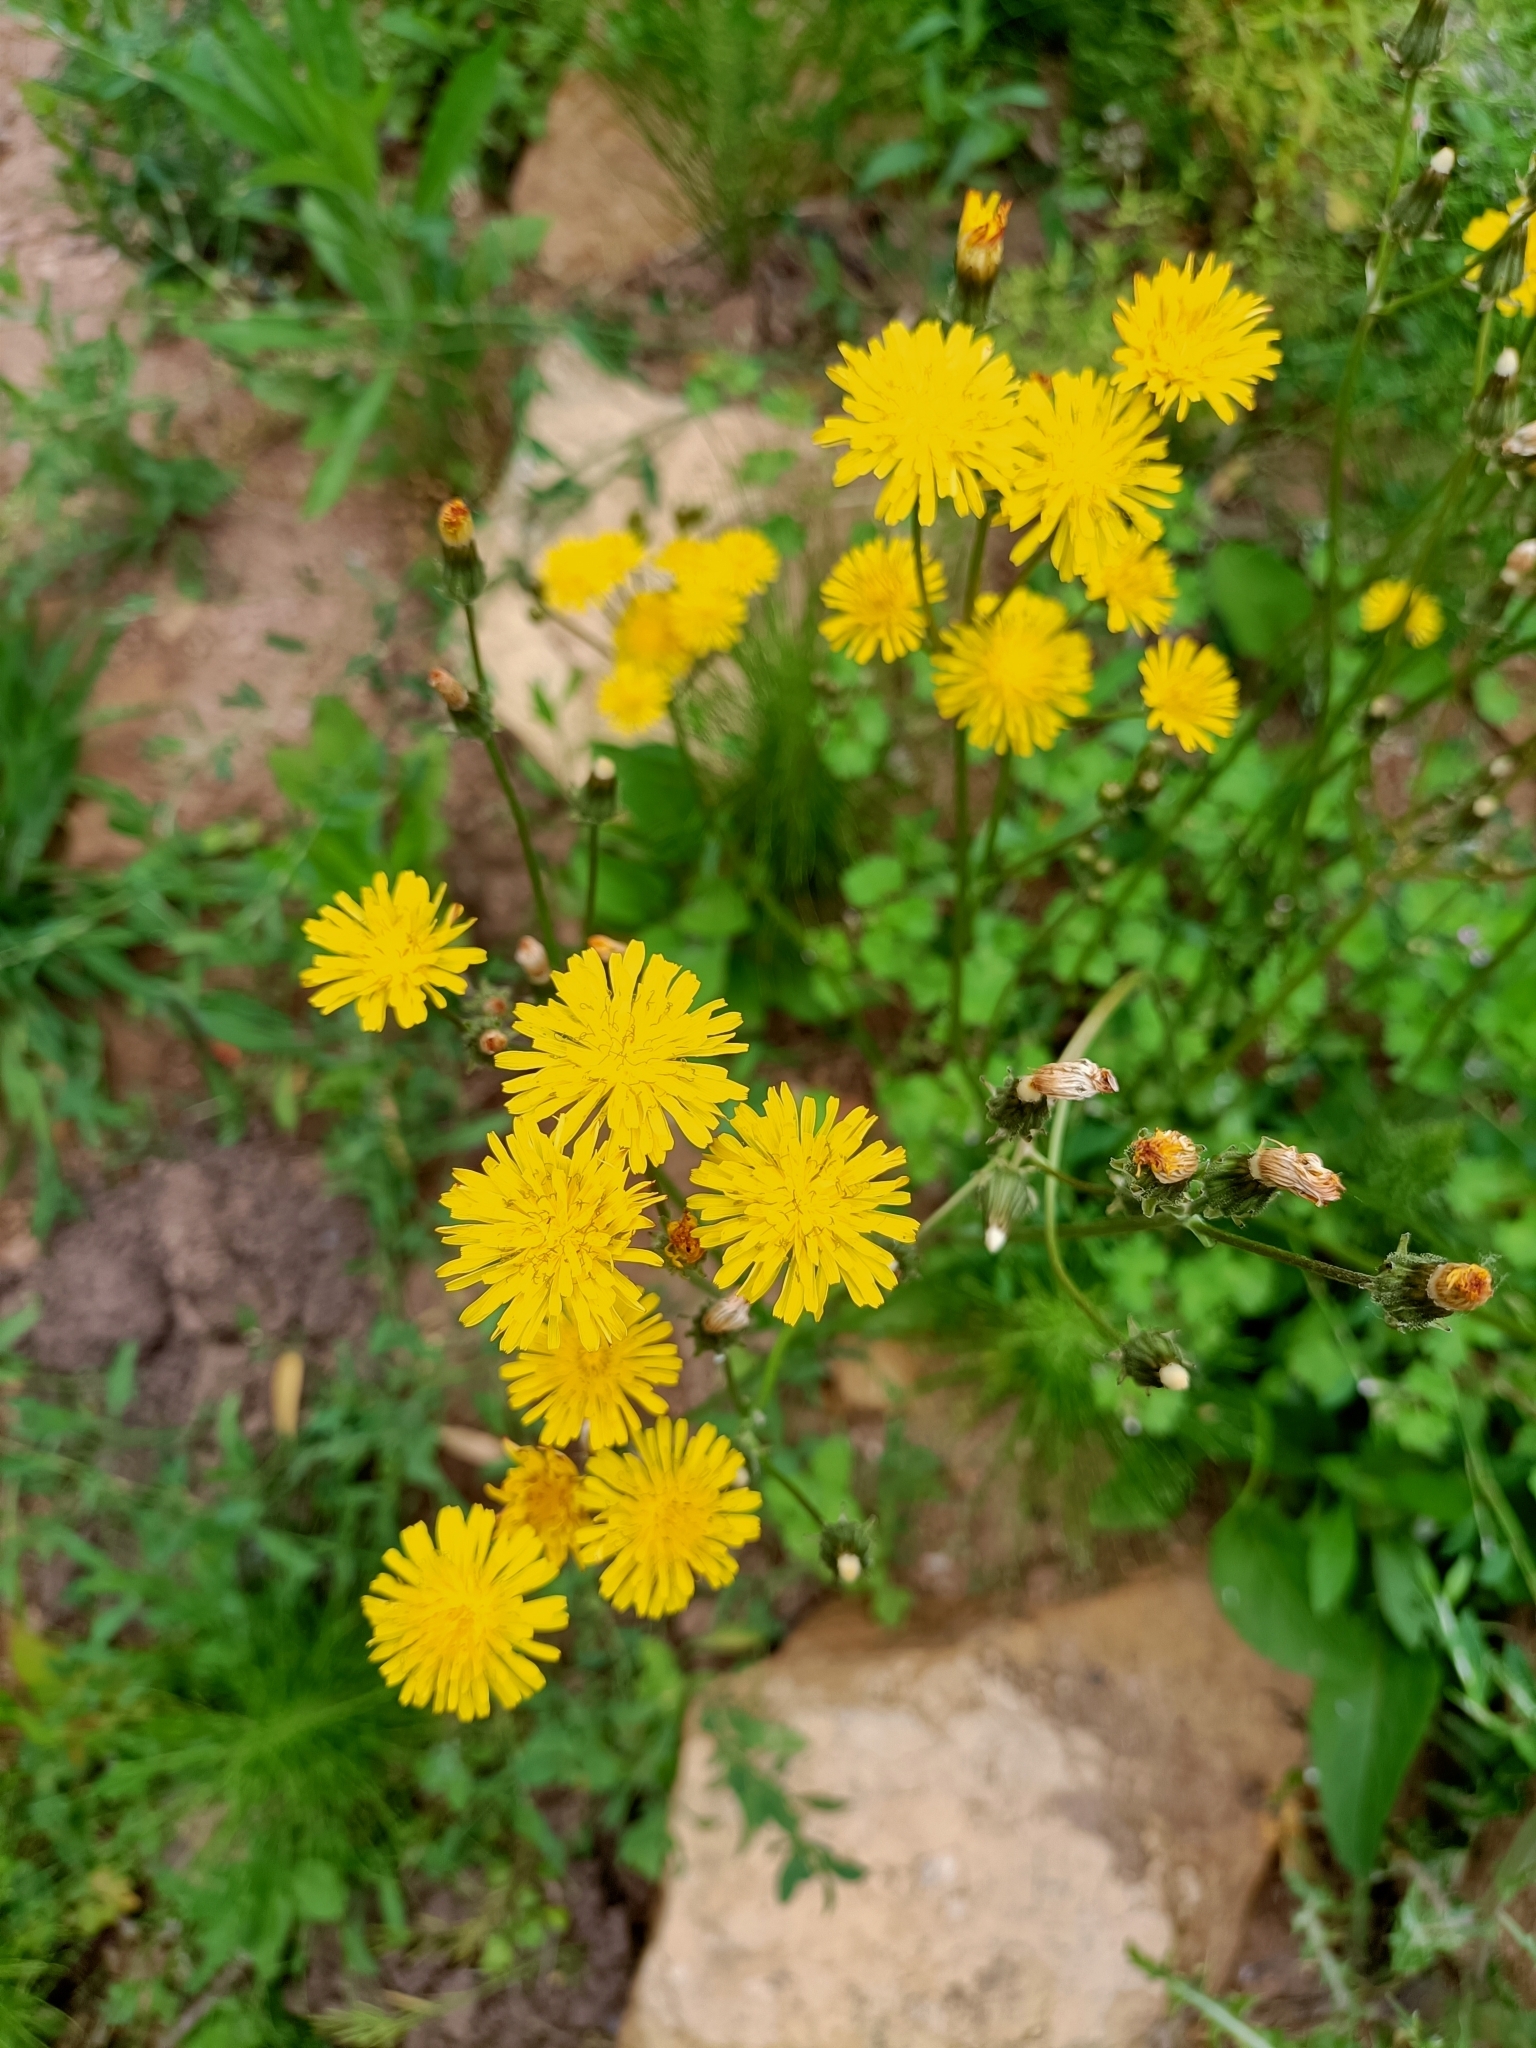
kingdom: Plantae
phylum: Tracheophyta
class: Magnoliopsida
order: Asterales
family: Asteraceae
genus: Crepis
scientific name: Crepis vesicaria
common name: Beaked hawksbeard
